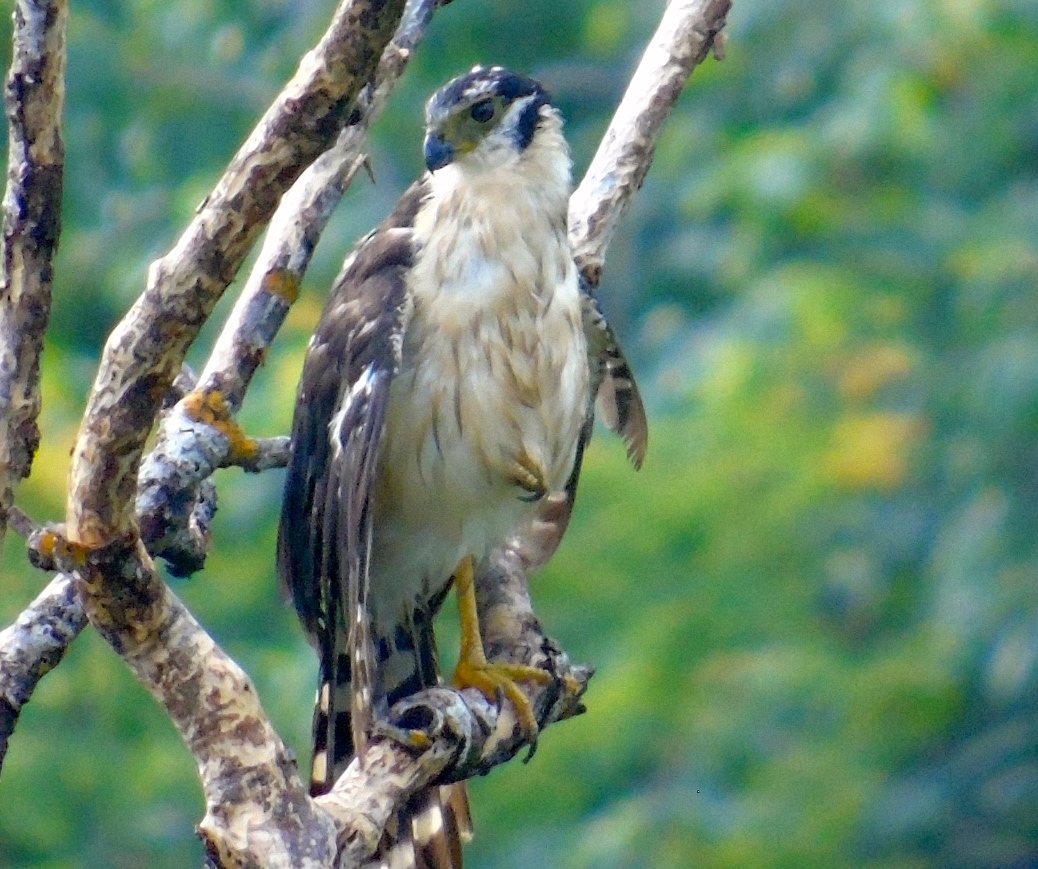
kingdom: Animalia
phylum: Chordata
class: Aves
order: Falconiformes
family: Falconidae
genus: Micrastur
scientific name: Micrastur semitorquatus
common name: Collared forest-falcon
